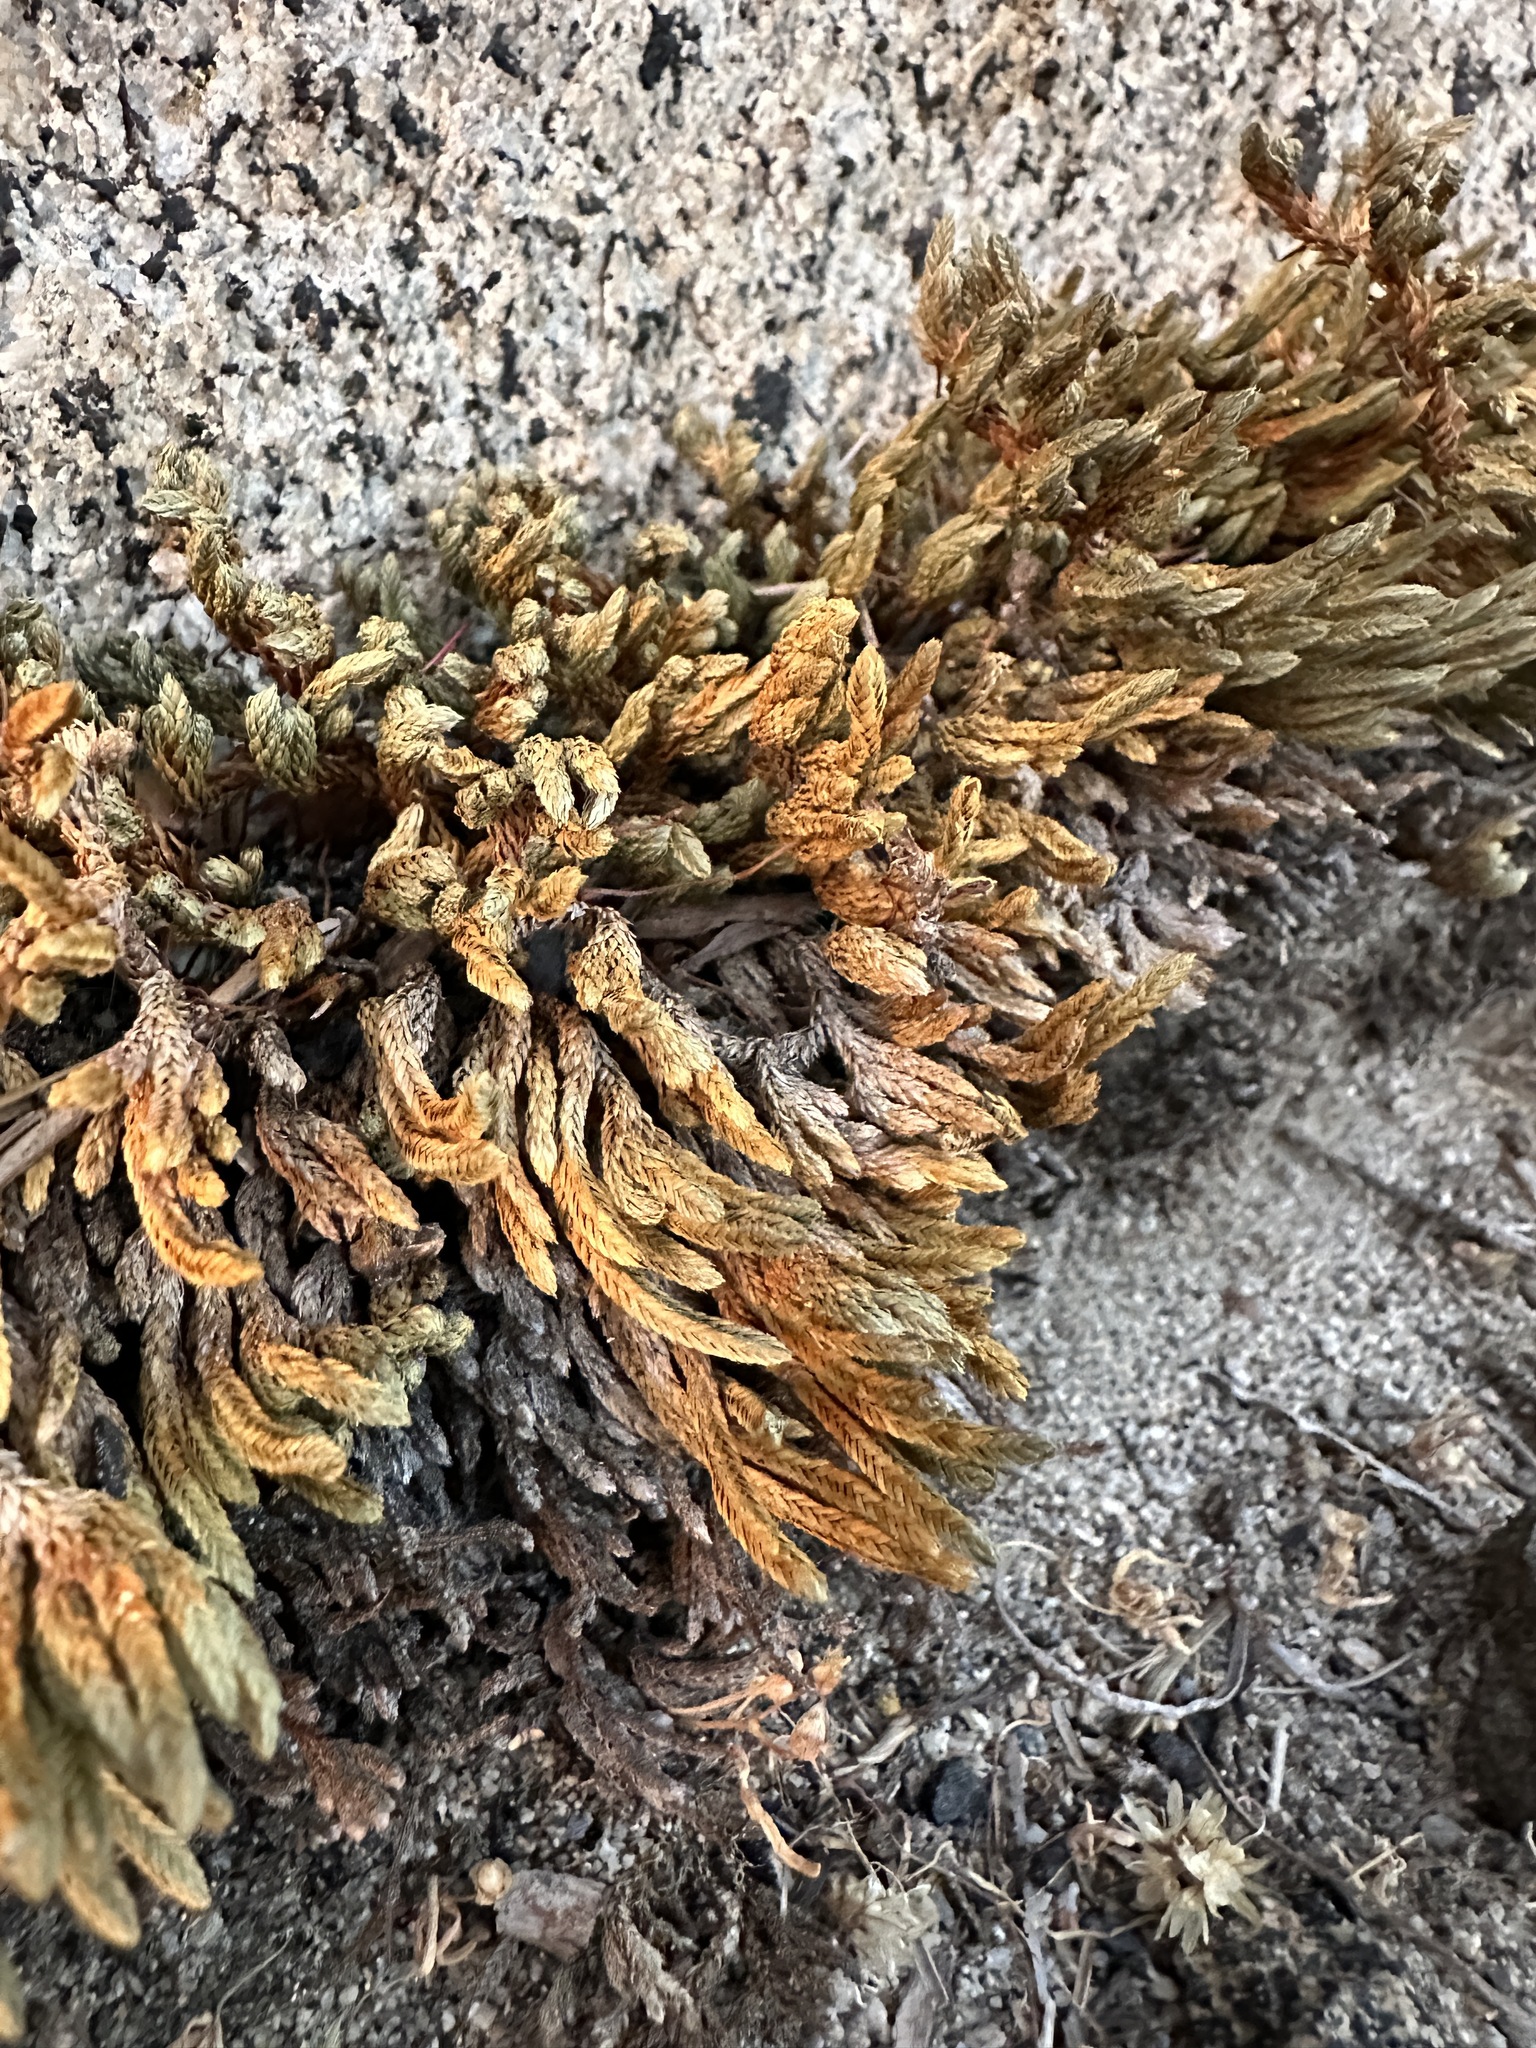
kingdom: Plantae
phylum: Tracheophyta
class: Lycopodiopsida
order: Selaginellales
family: Selaginellaceae
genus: Selaginella
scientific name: Selaginella watsonii
